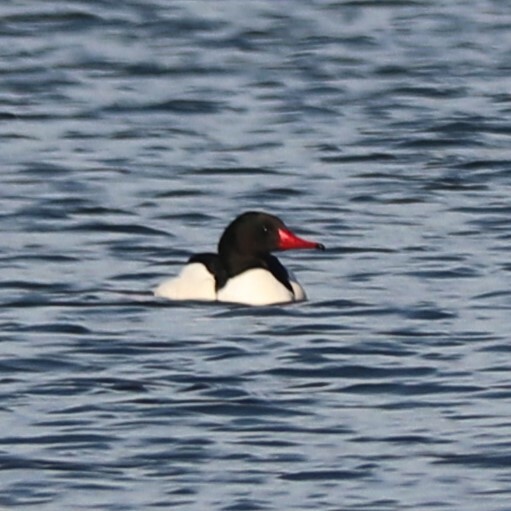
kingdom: Animalia
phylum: Chordata
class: Aves
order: Anseriformes
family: Anatidae
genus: Mergus
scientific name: Mergus merganser
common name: Common merganser
